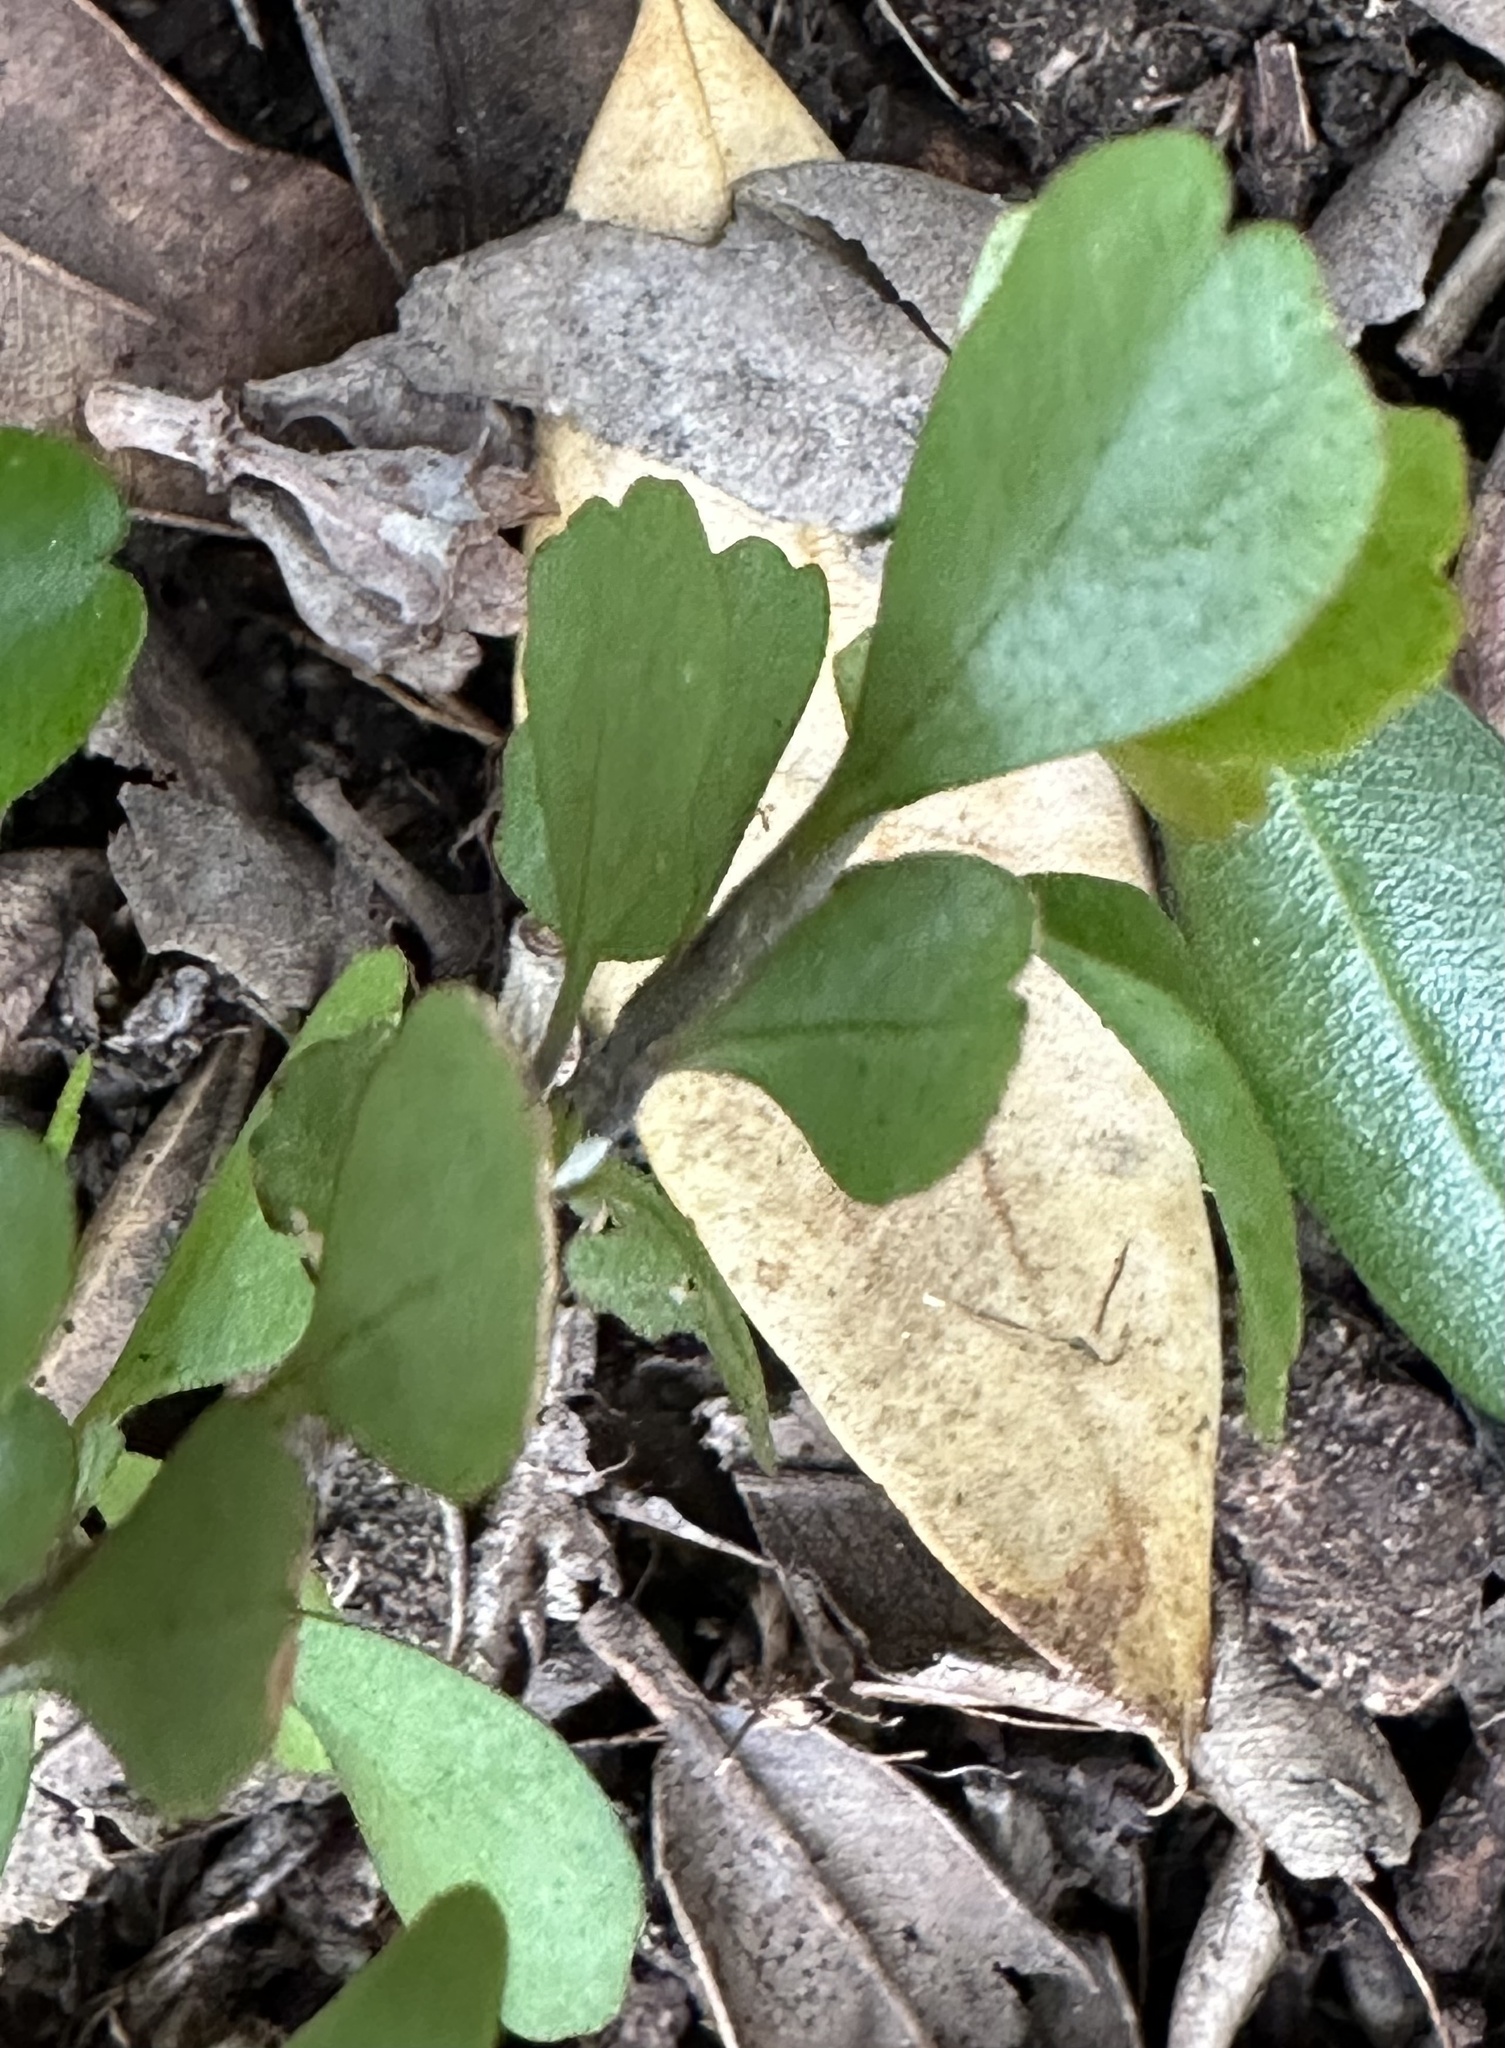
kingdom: Plantae
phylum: Tracheophyta
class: Magnoliopsida
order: Ericales
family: Primulaceae
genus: Myrsine
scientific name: Myrsine aquilonia
